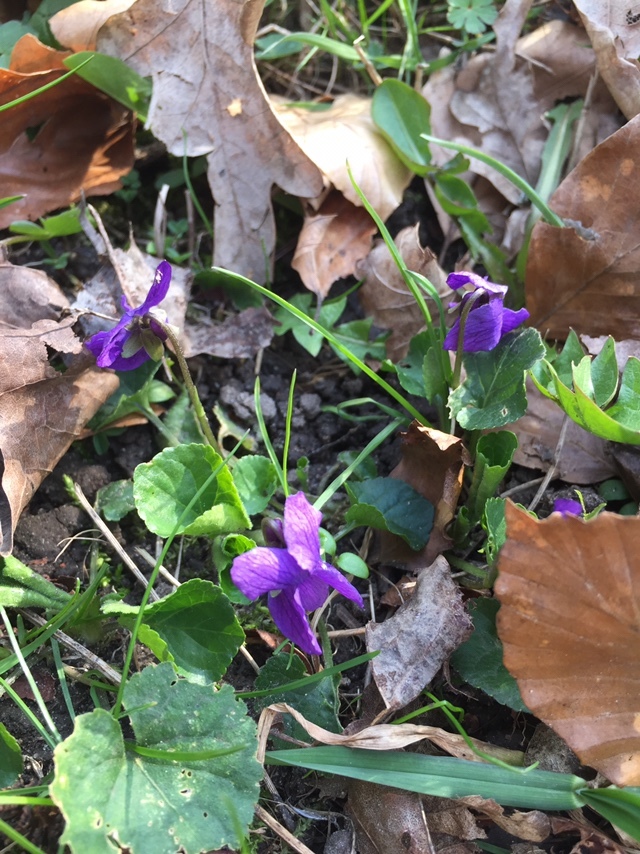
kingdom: Plantae
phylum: Tracheophyta
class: Magnoliopsida
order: Malpighiales
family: Violaceae
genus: Viola
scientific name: Viola odorata
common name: Sweet violet
